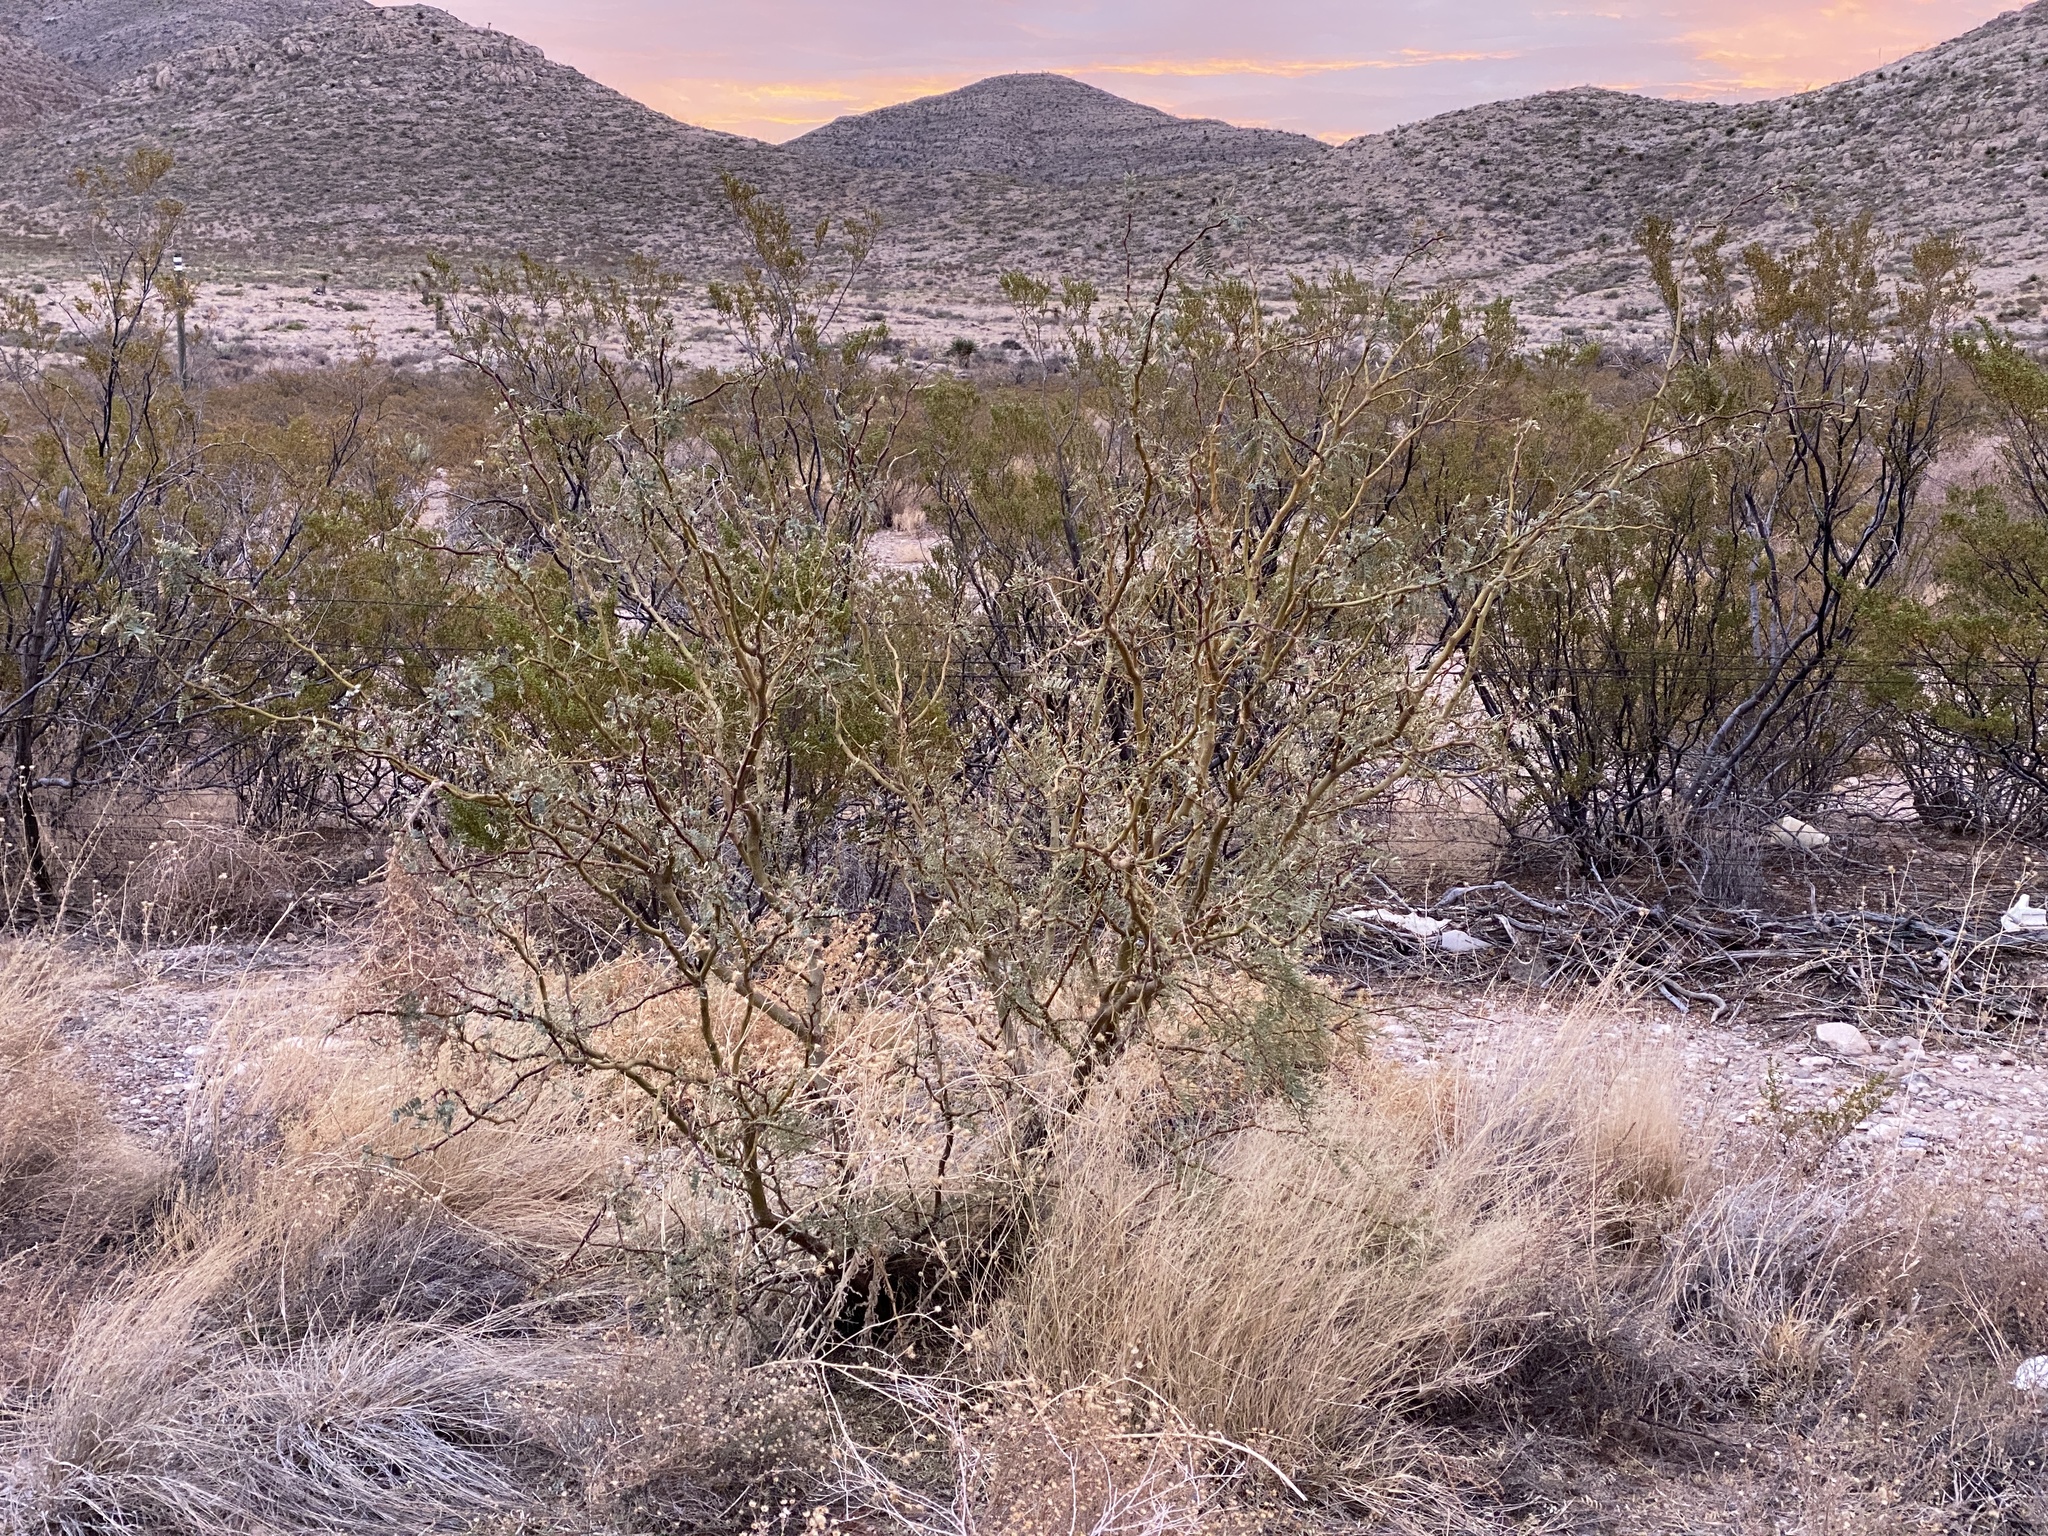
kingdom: Plantae
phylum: Tracheophyta
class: Magnoliopsida
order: Fabales
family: Fabaceae
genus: Prosopis
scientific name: Prosopis glandulosa
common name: Honey mesquite
